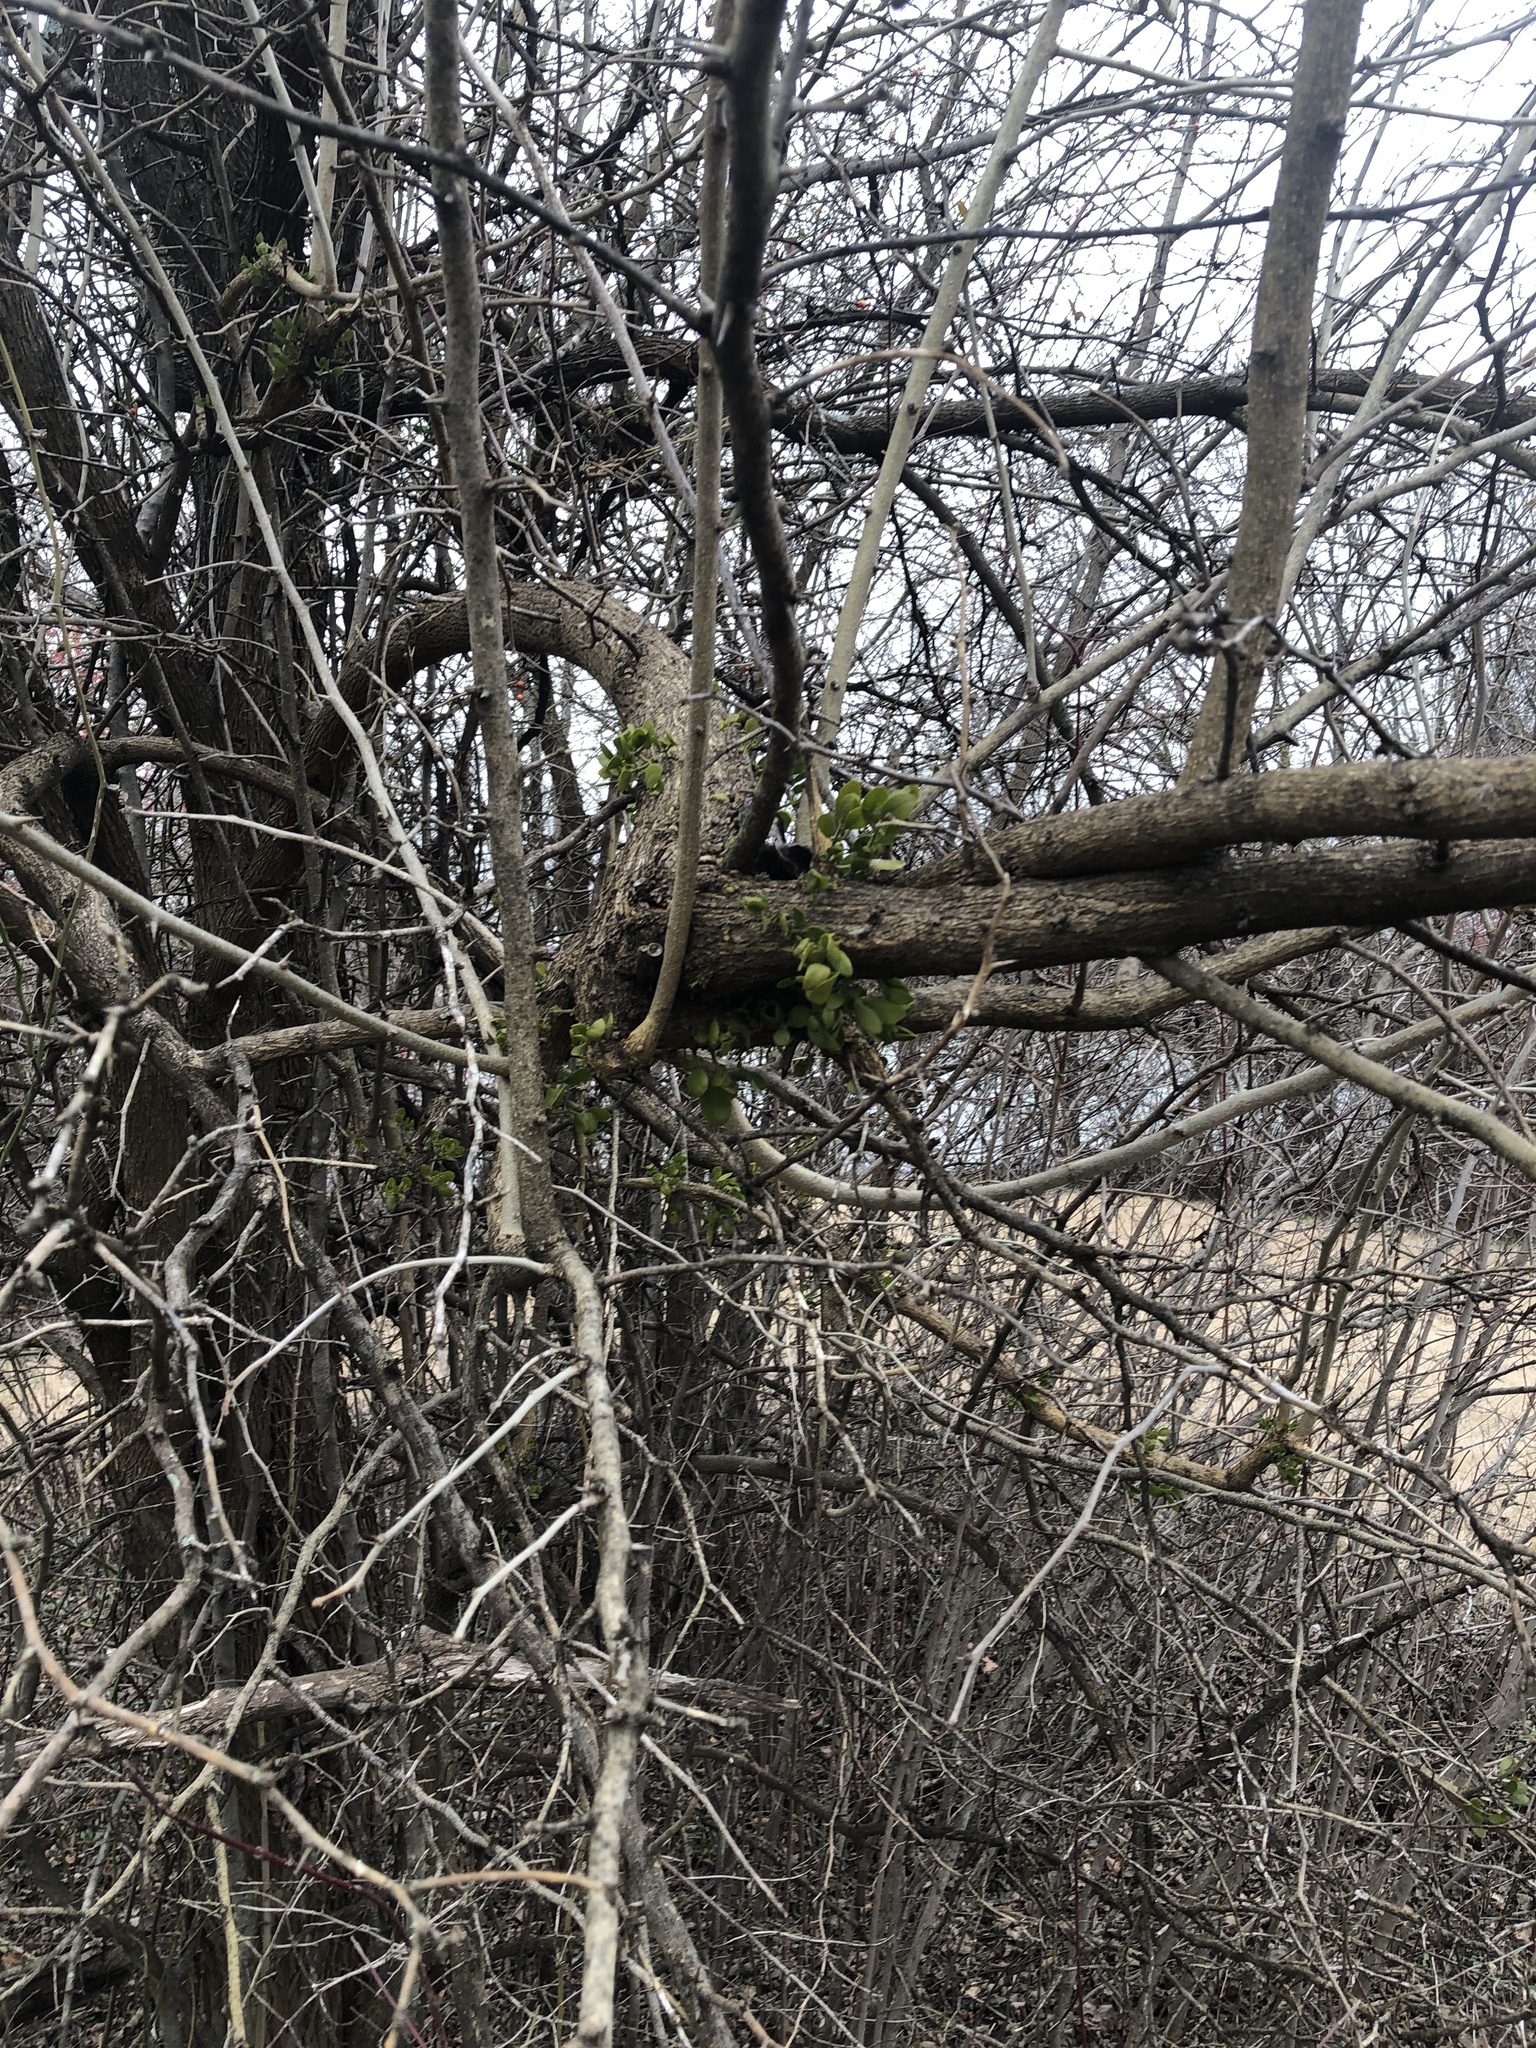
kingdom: Plantae
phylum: Tracheophyta
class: Magnoliopsida
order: Santalales
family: Viscaceae
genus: Phoradendron
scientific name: Phoradendron leucarpum
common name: Pacific mistletoe
